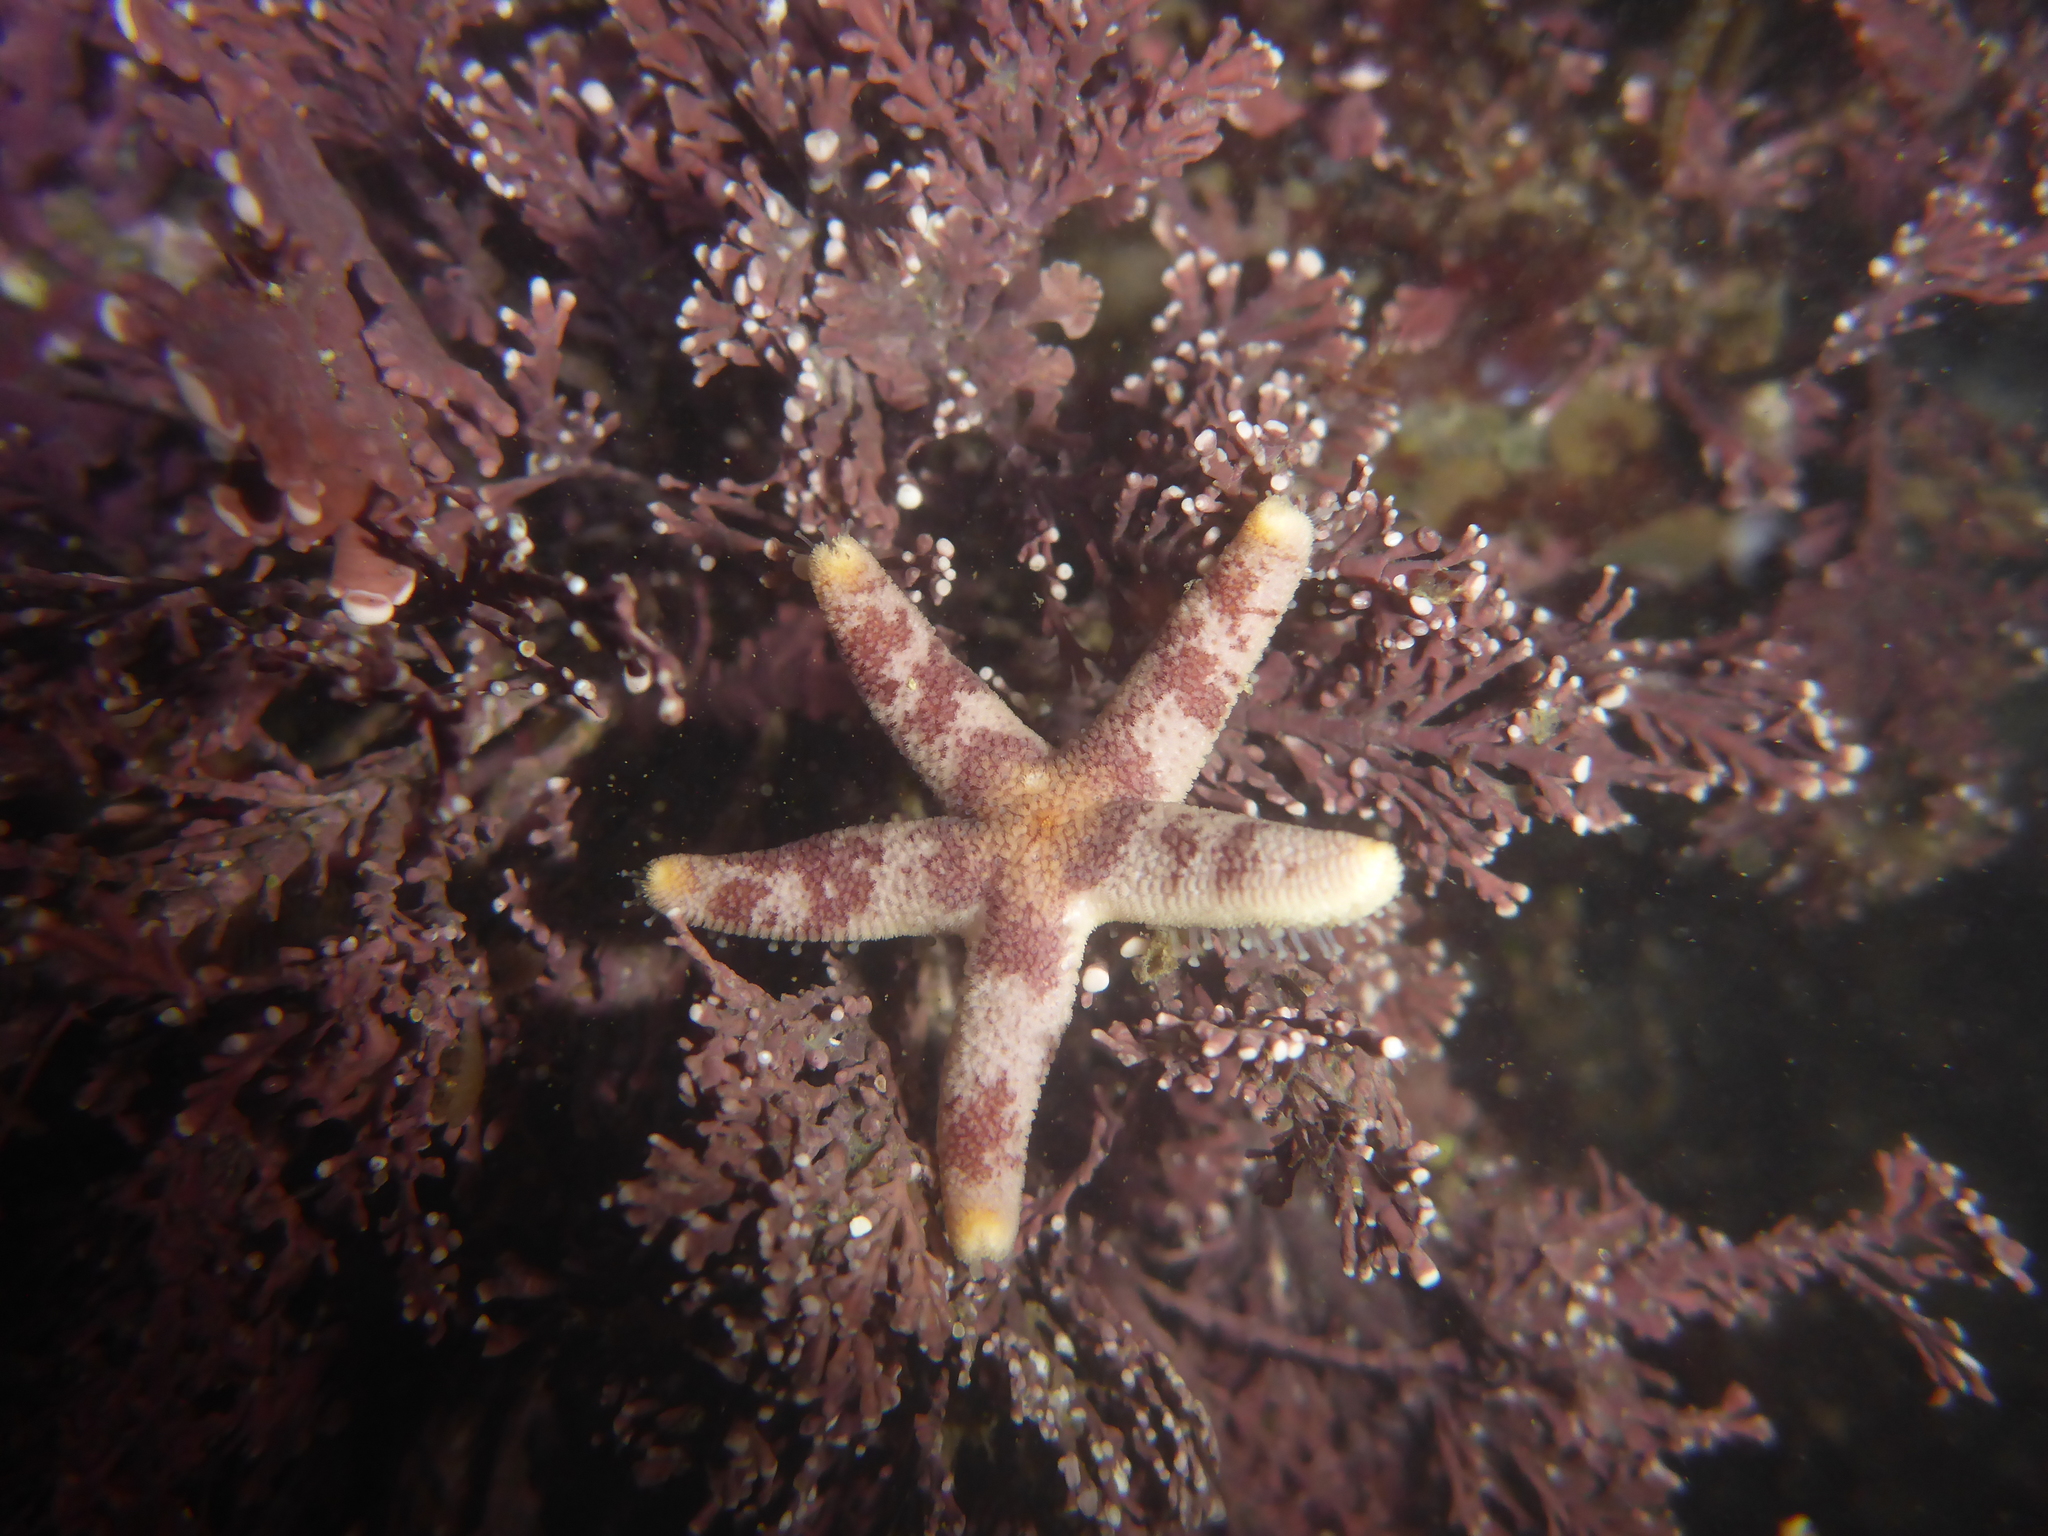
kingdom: Animalia
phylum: Echinodermata
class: Asteroidea
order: Spinulosida
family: Echinasteridae
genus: Henricia
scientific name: Henricia pumila
